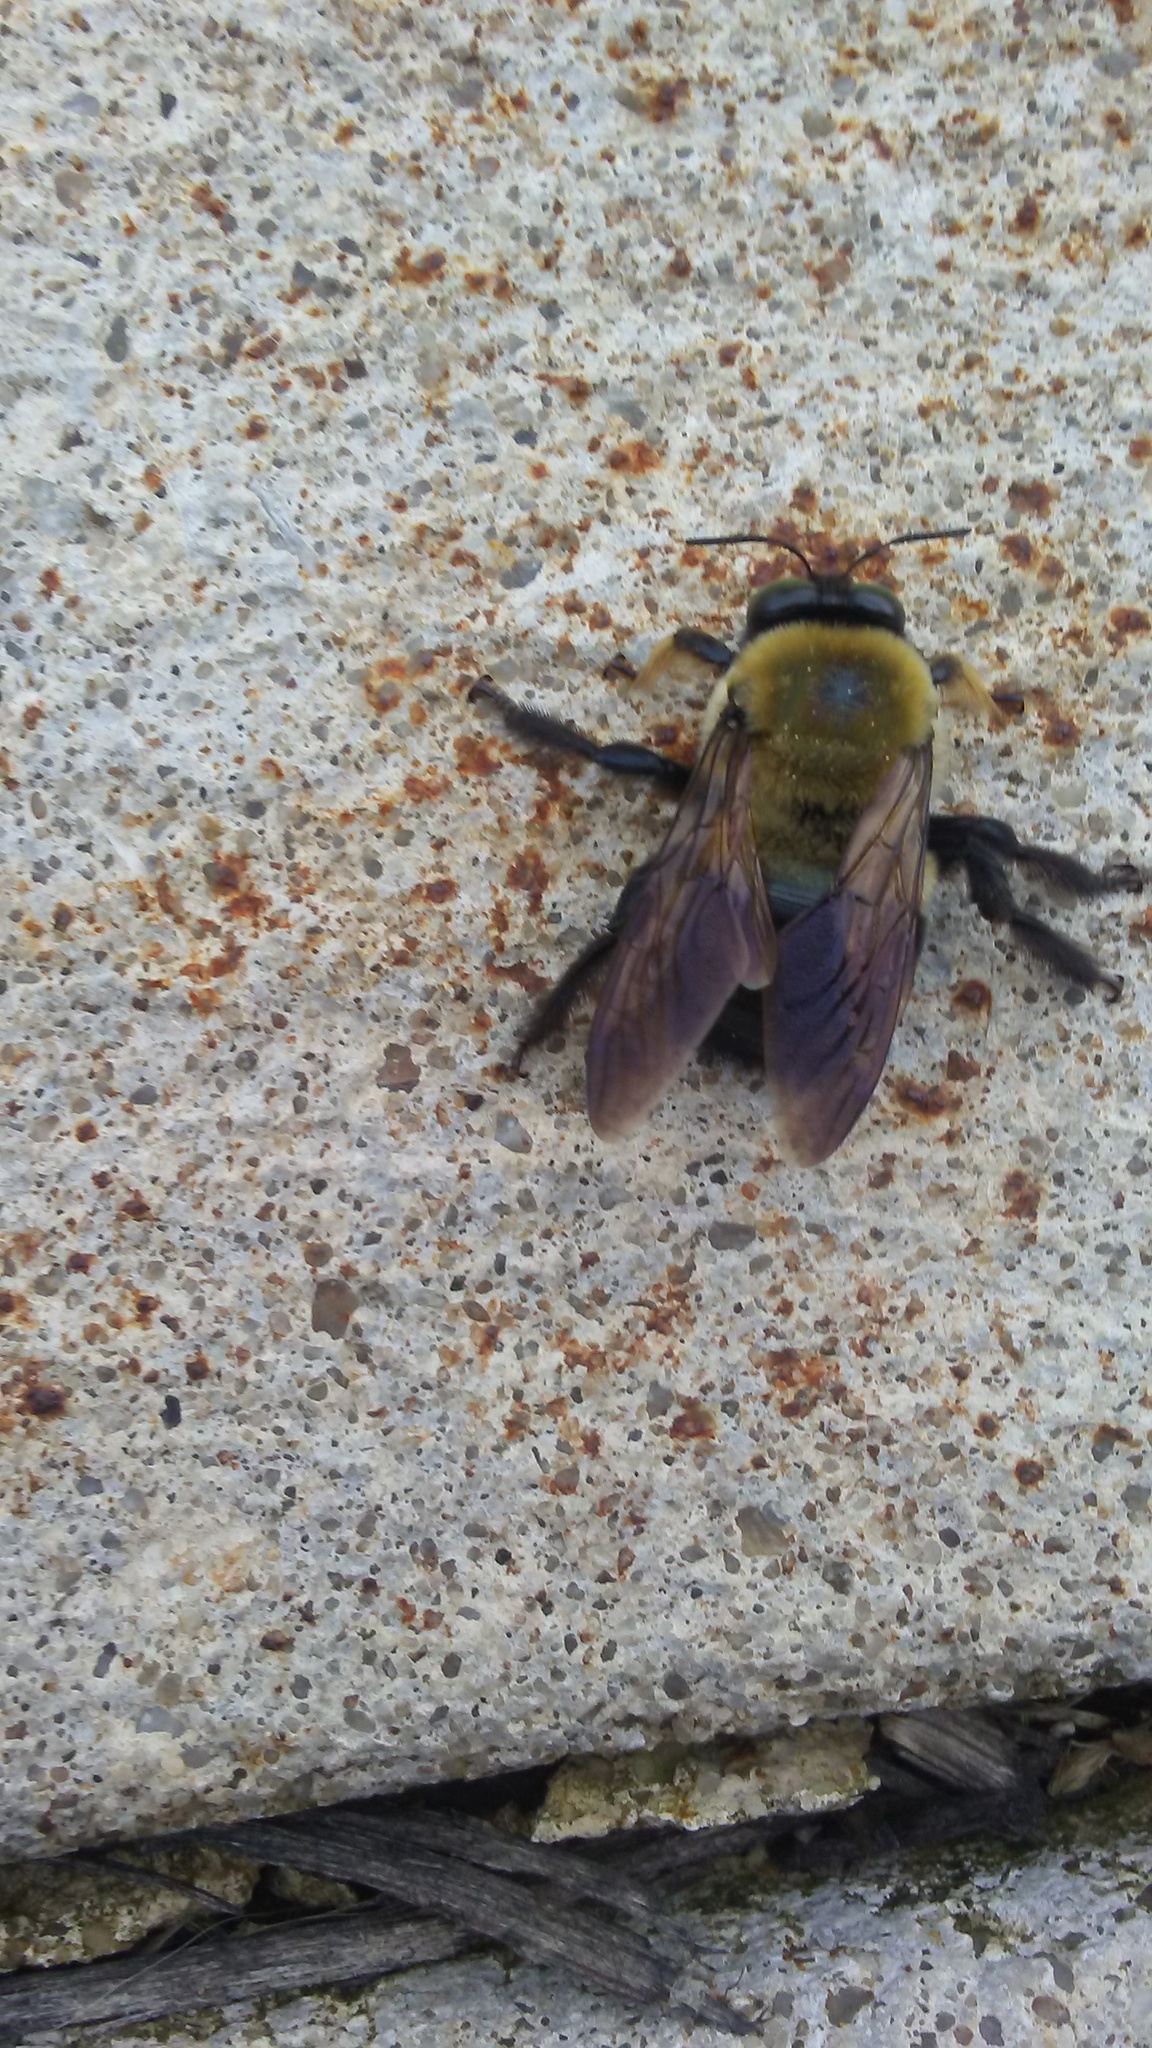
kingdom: Animalia
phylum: Arthropoda
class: Insecta
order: Hymenoptera
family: Apidae
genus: Xylocopa
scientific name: Xylocopa virginica
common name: Carpenter bee
